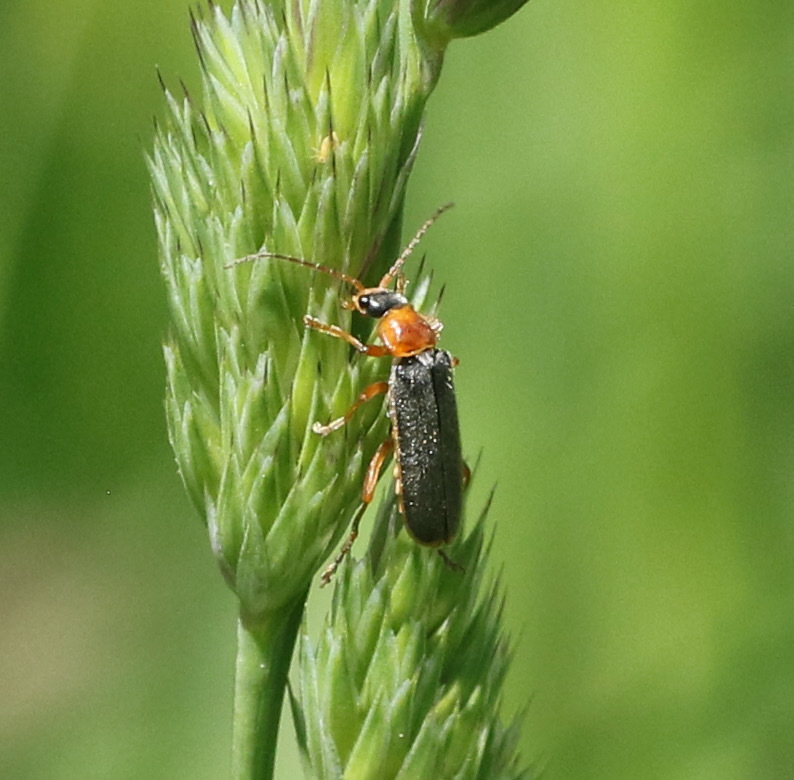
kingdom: Animalia
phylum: Arthropoda
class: Insecta
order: Coleoptera
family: Cantharidae
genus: Cantharis
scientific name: Cantharis lateralis
